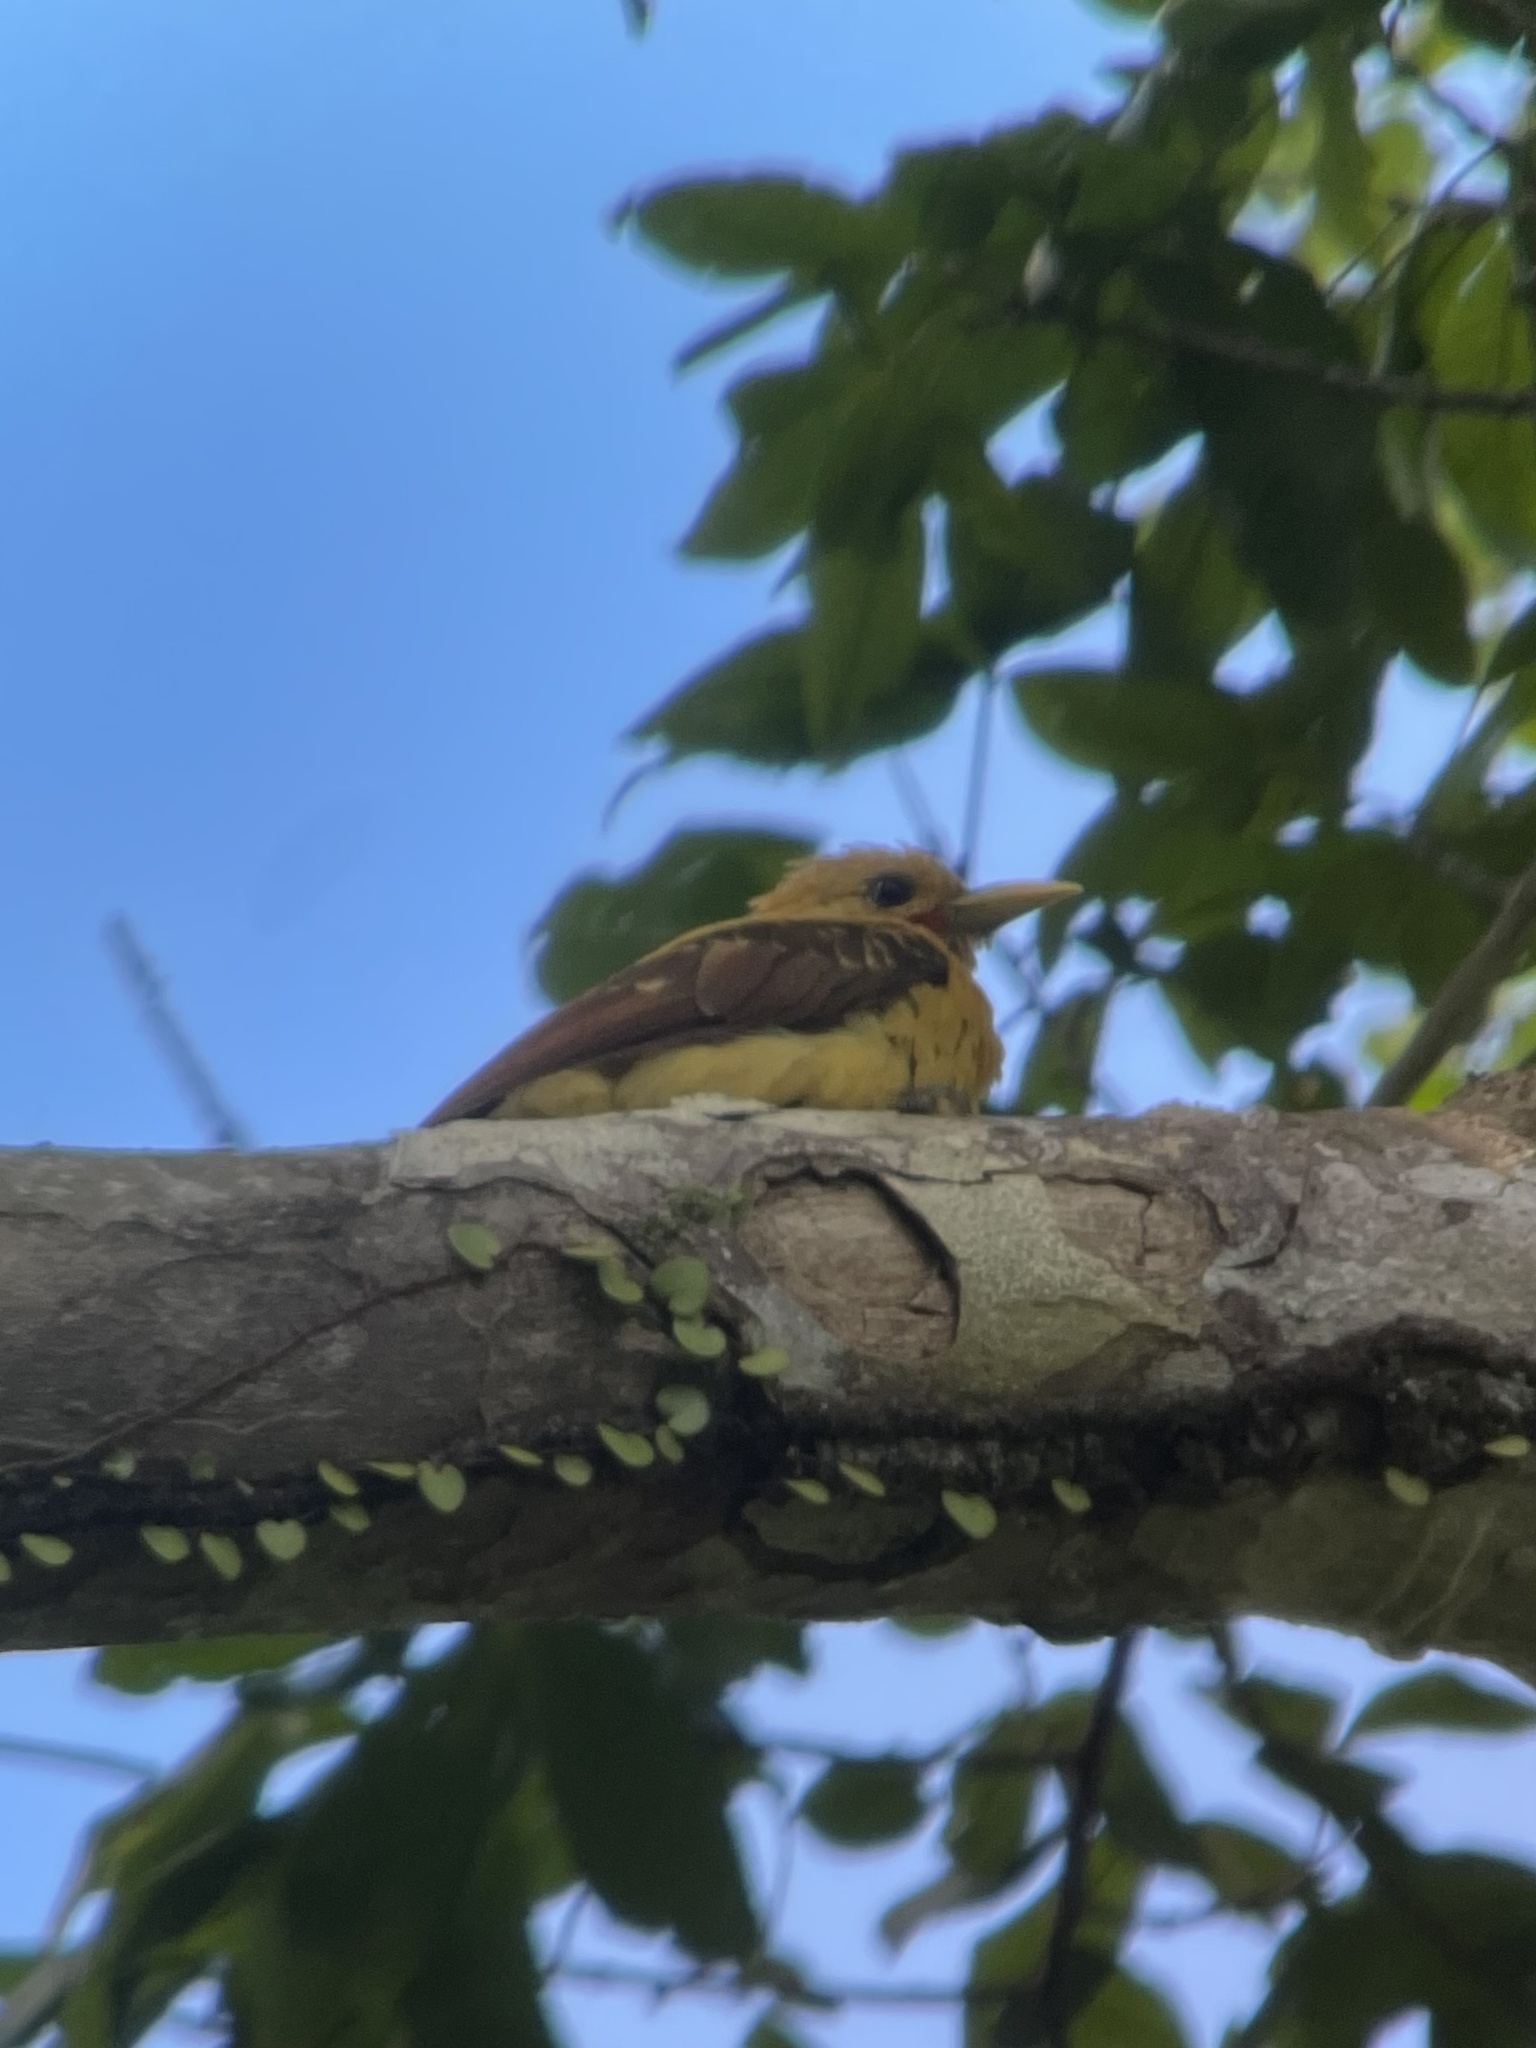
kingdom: Animalia
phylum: Chordata
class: Aves
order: Piciformes
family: Picidae
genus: Celeus
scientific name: Celeus flavus
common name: Cream-colored woodpecker
